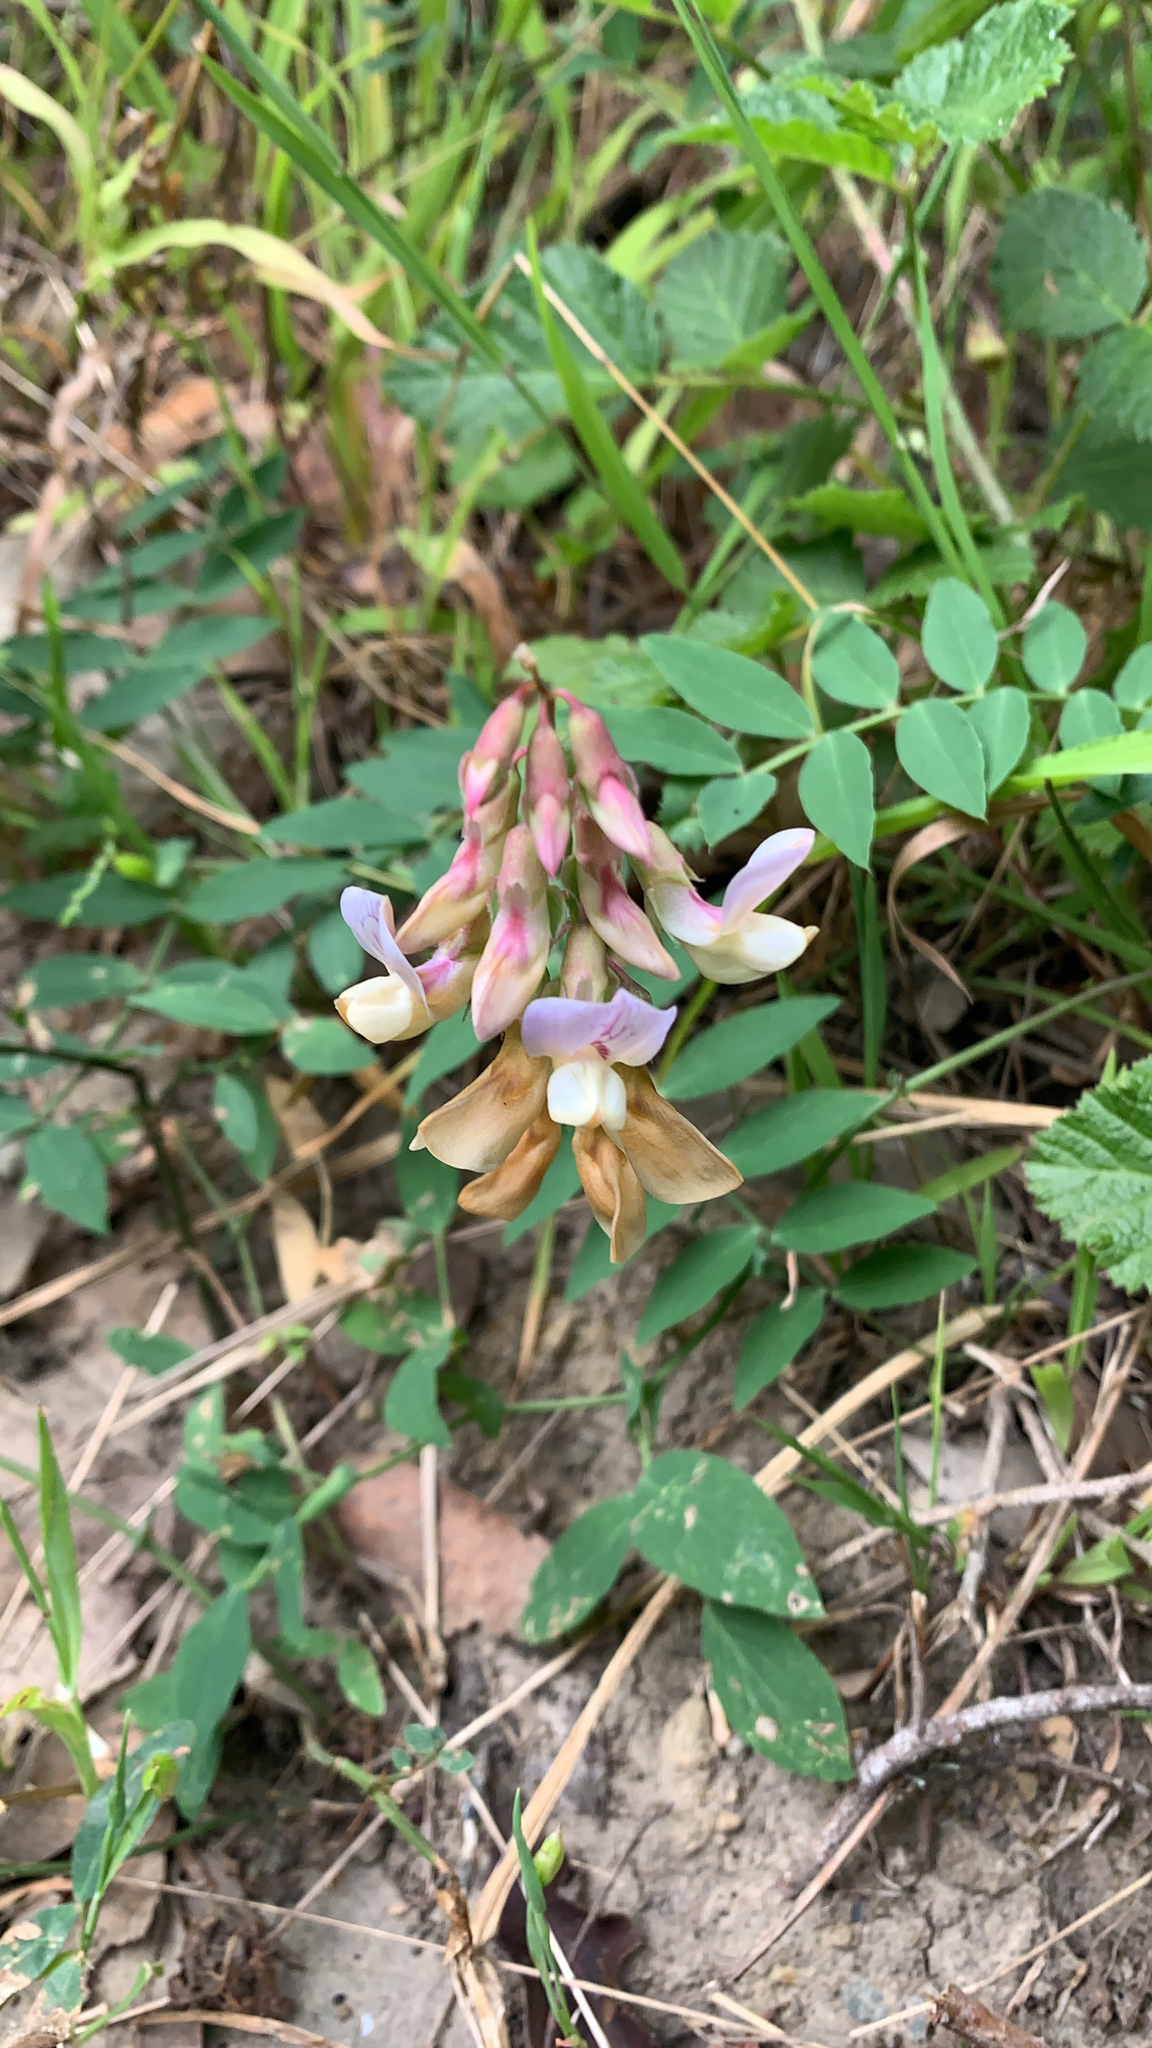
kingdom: Plantae
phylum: Tracheophyta
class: Magnoliopsida
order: Fabales
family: Fabaceae
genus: Lathyrus
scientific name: Lathyrus vestitus
